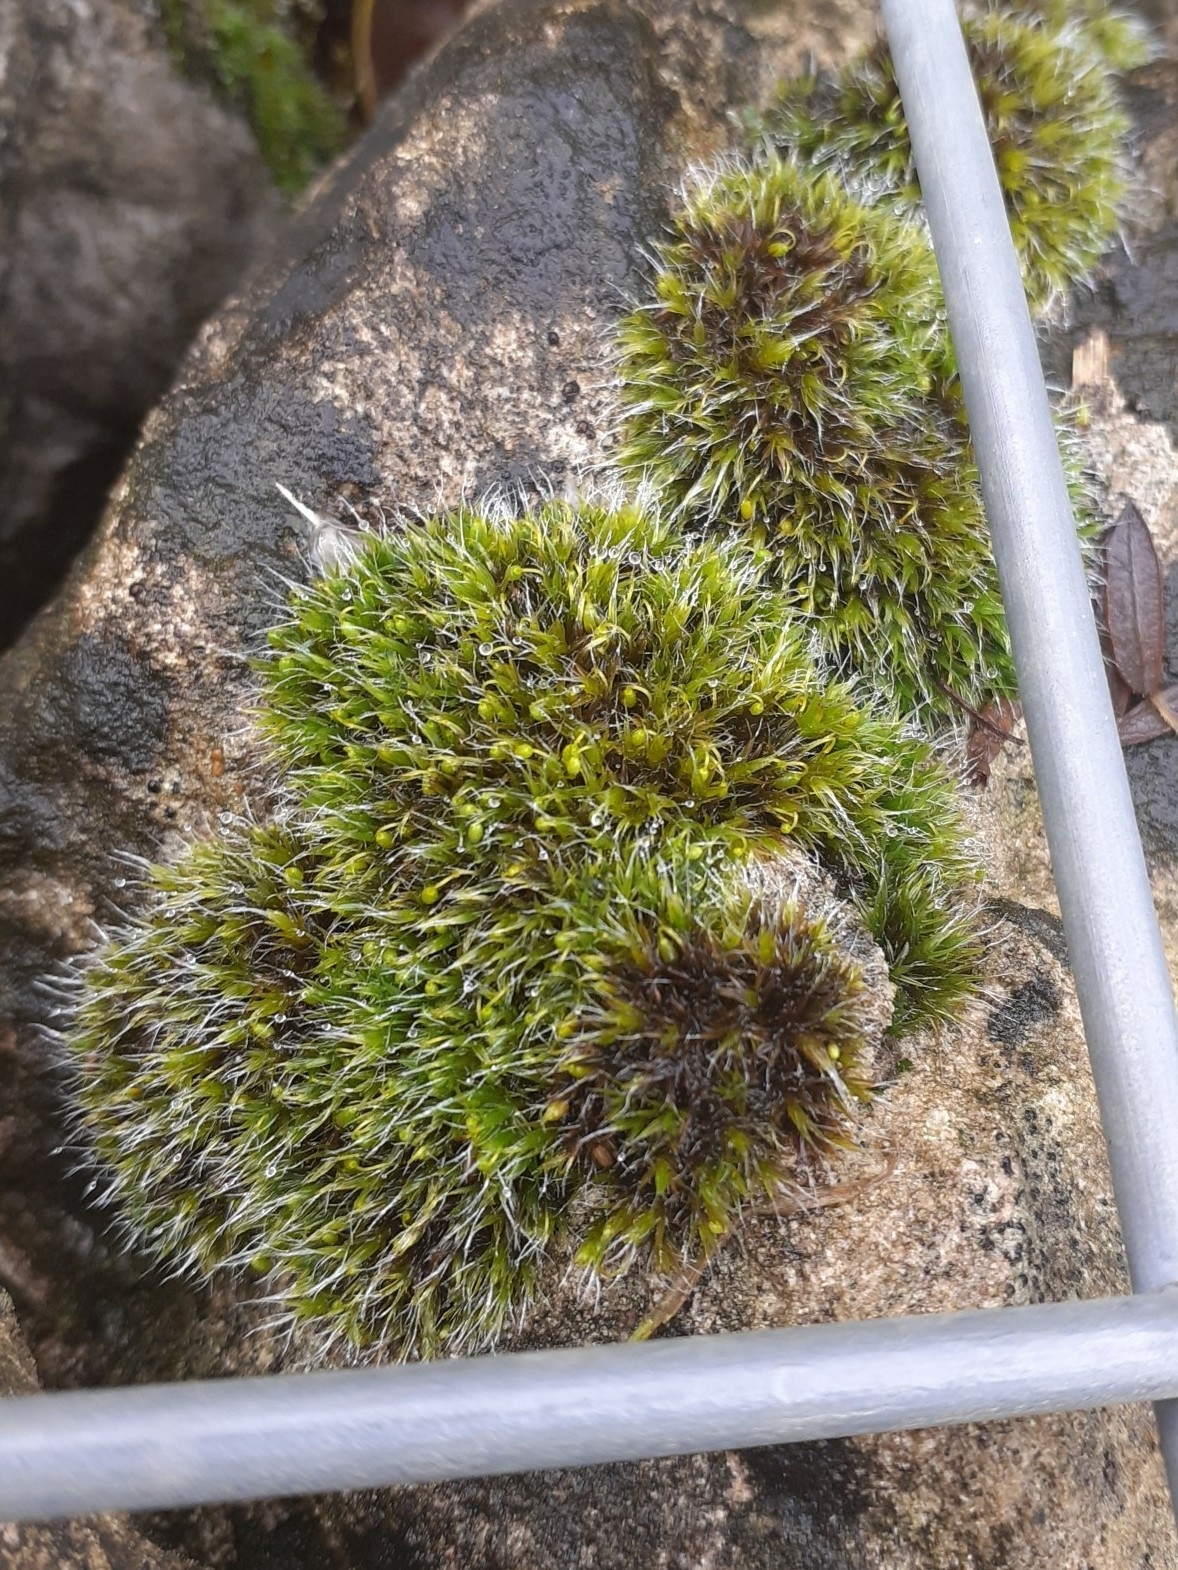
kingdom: Plantae
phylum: Bryophyta
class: Bryopsida
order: Grimmiales
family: Grimmiaceae
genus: Grimmia
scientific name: Grimmia pulvinata
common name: Grey-cushioned grimmia
